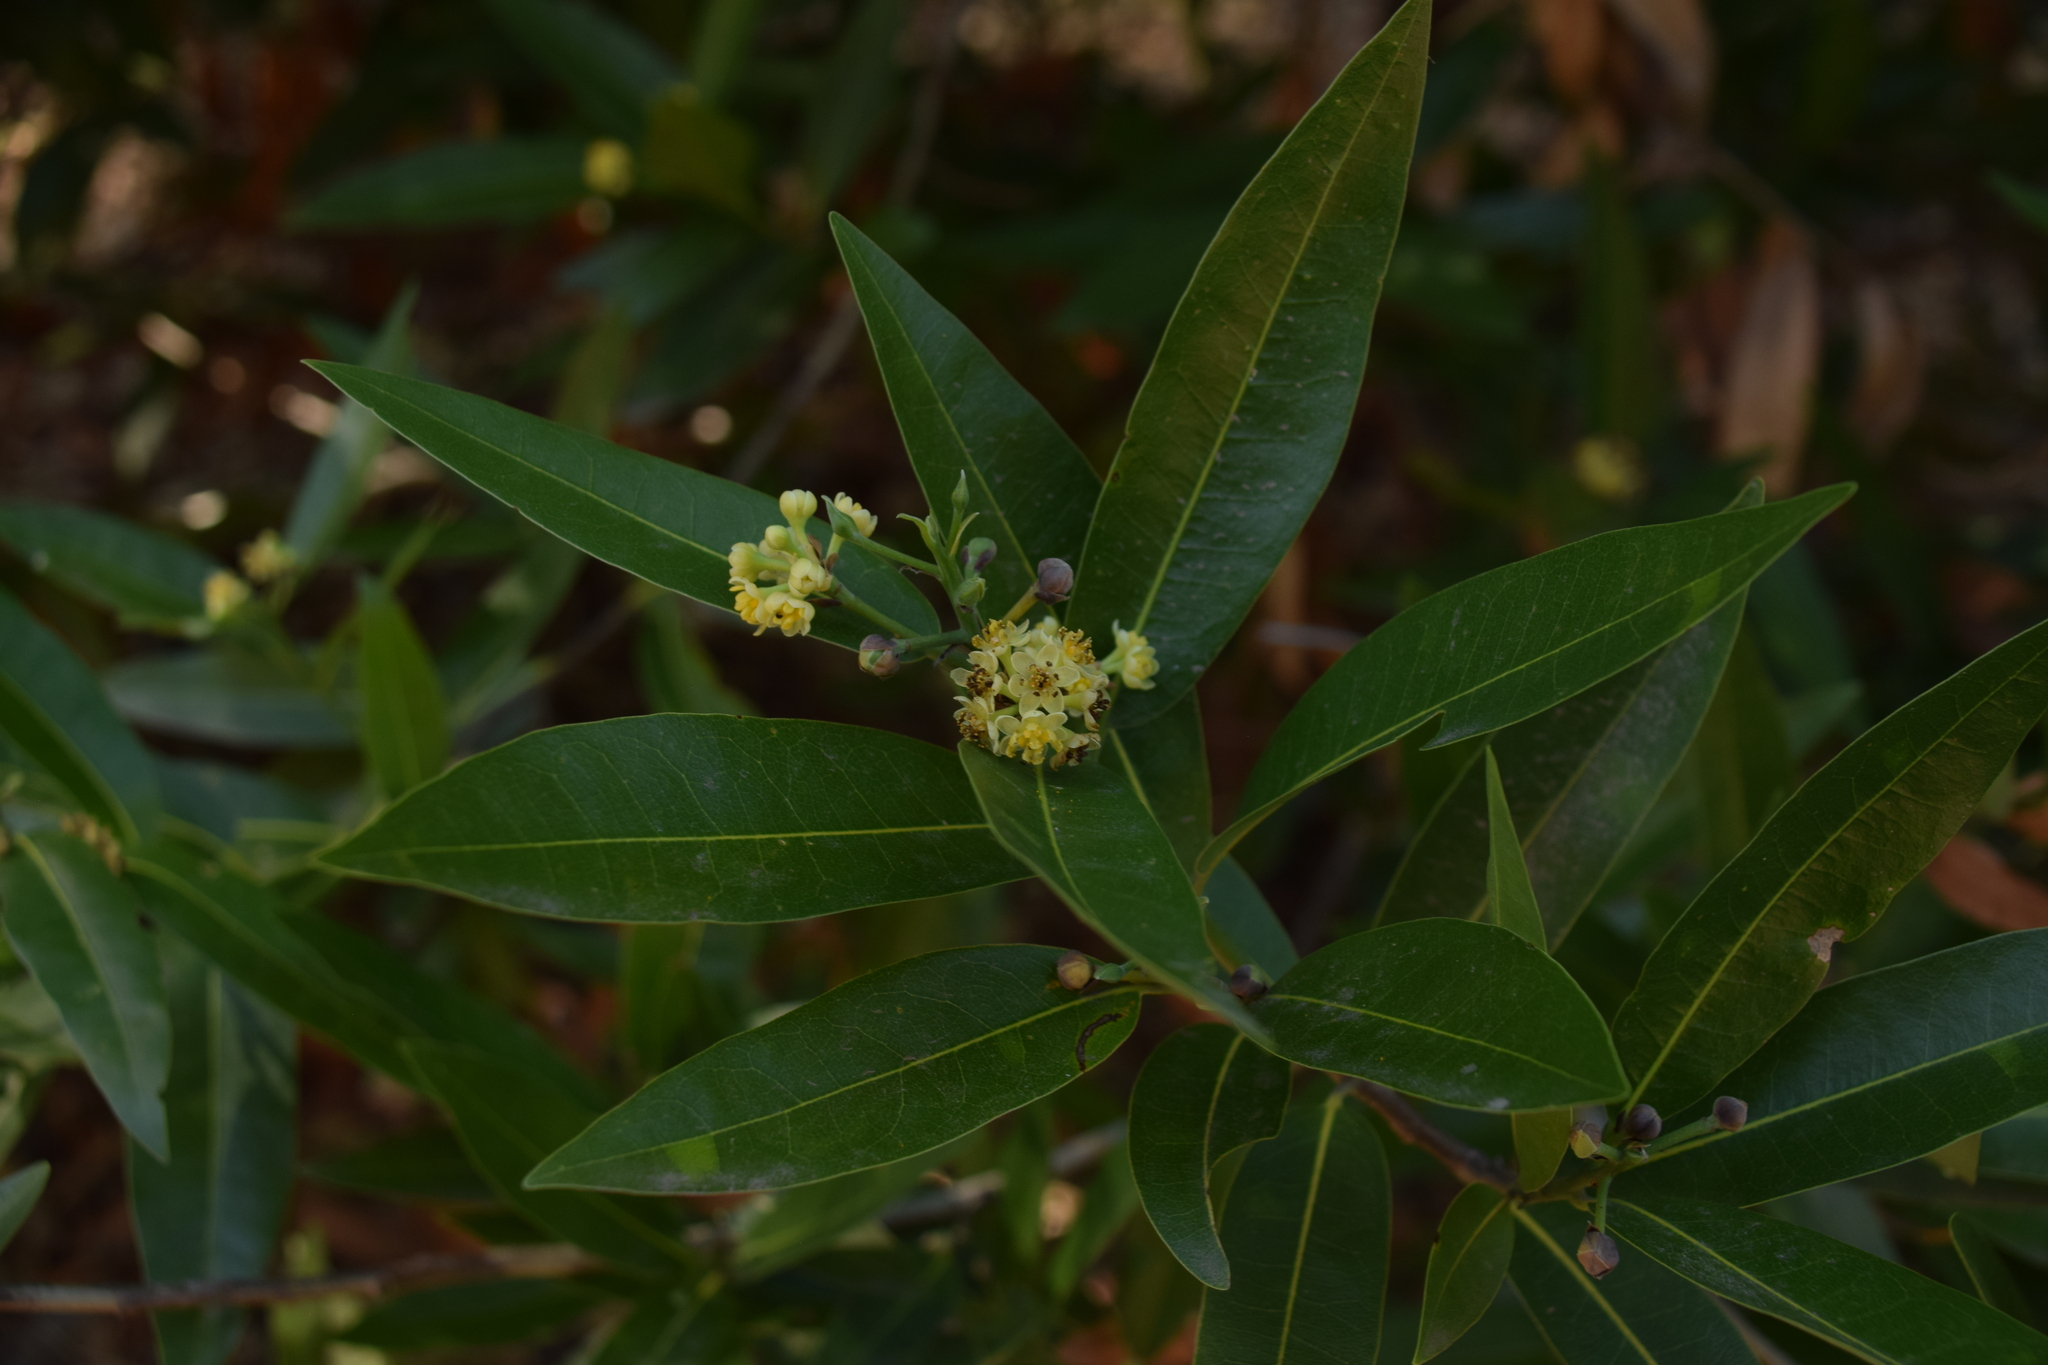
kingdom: Plantae
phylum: Tracheophyta
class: Magnoliopsida
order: Laurales
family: Lauraceae
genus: Umbellularia
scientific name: Umbellularia californica
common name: California bay
